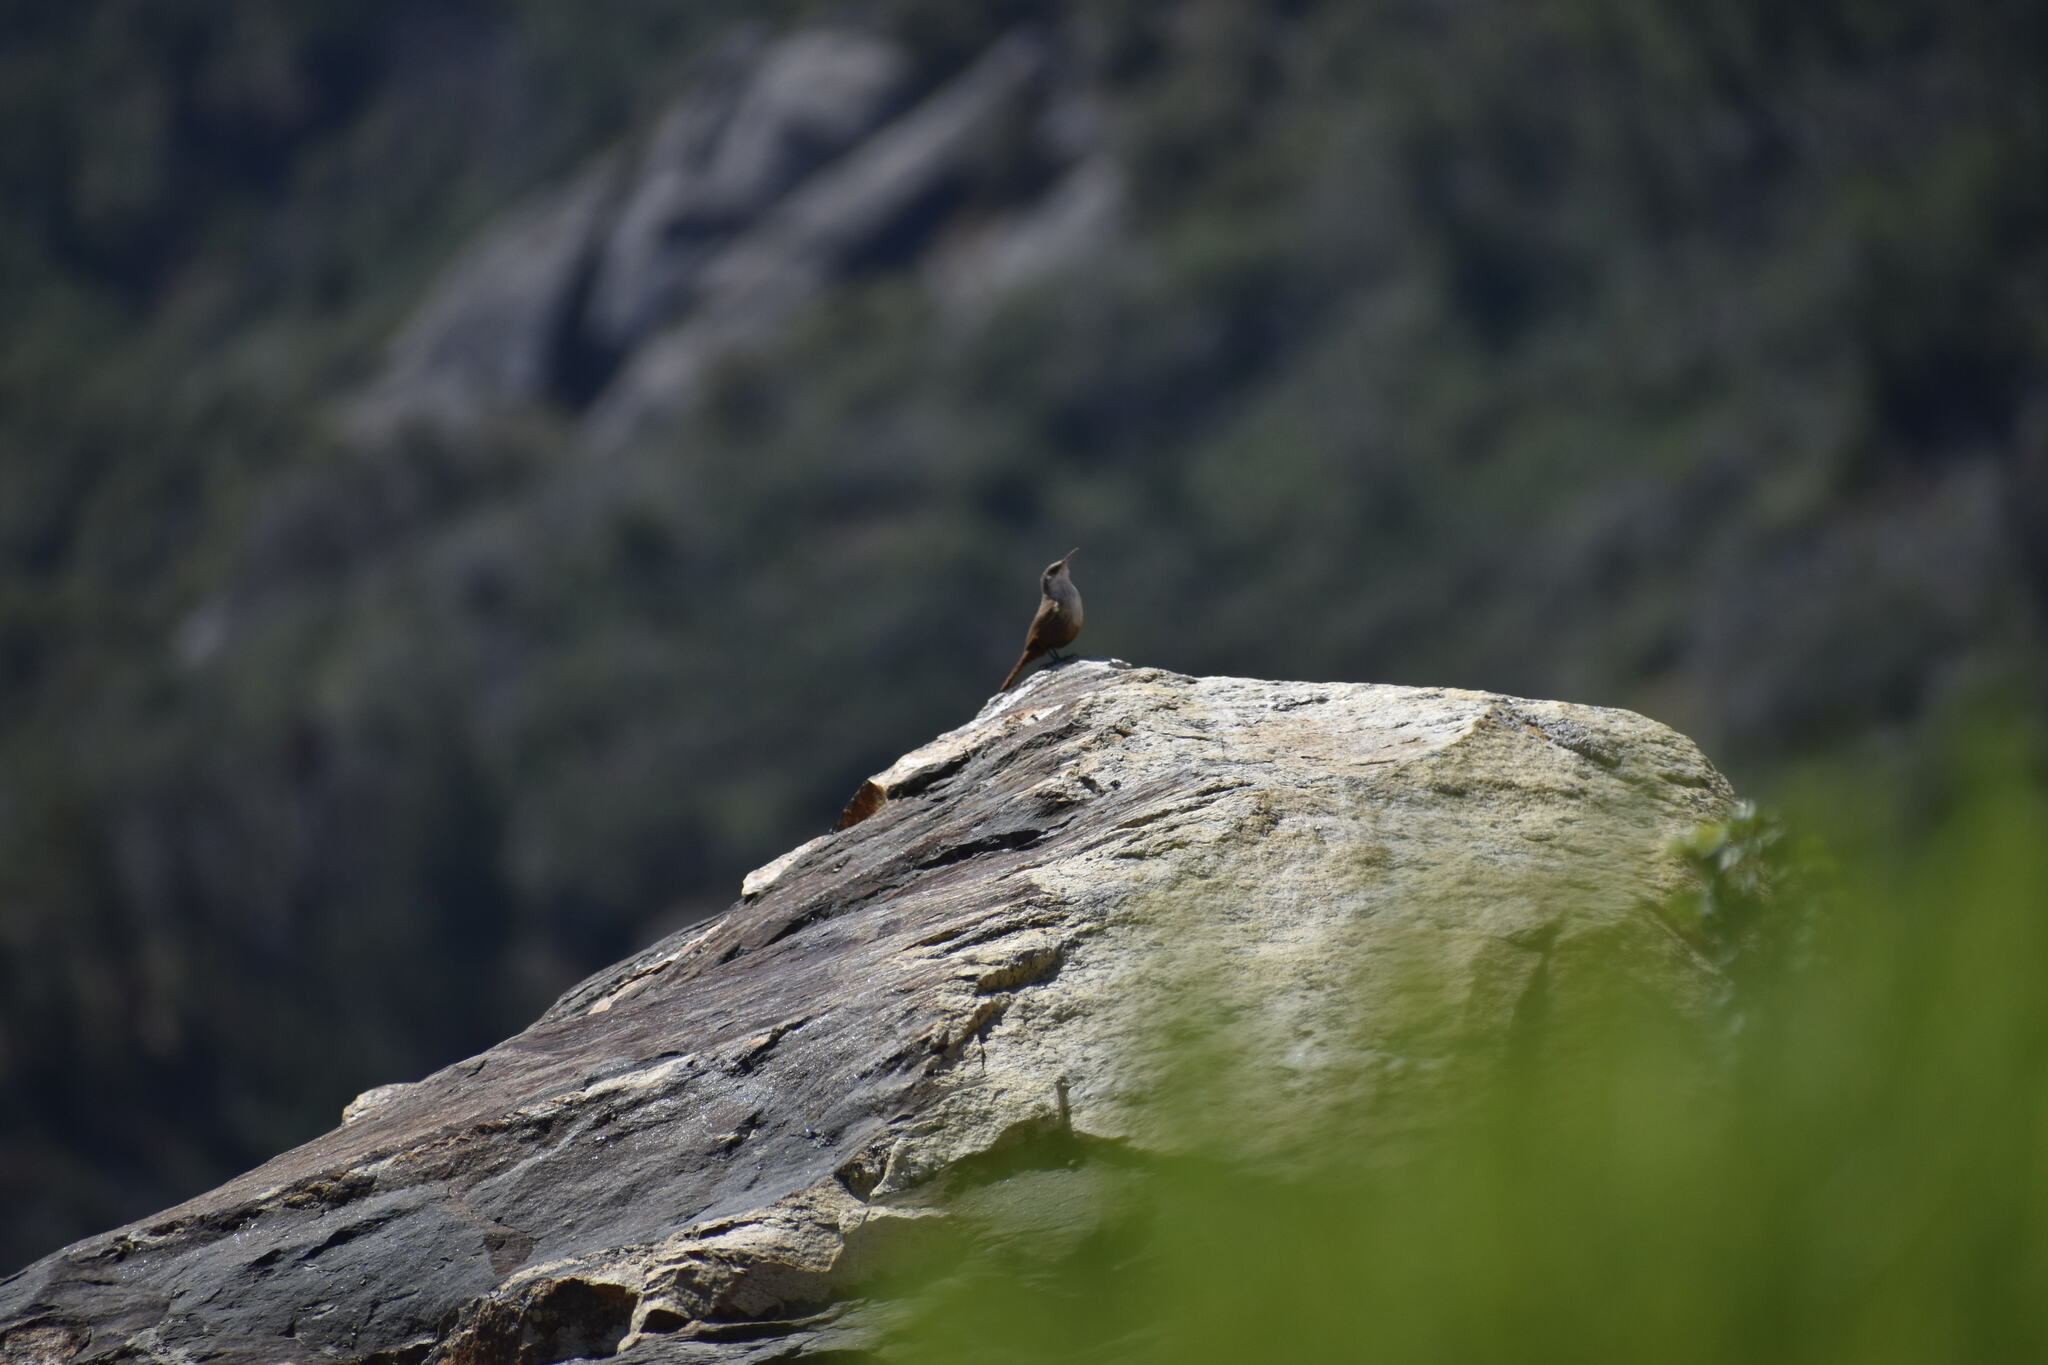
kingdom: Animalia
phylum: Chordata
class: Aves
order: Passeriformes
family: Troglodytidae
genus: Catherpes
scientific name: Catherpes mexicanus
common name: Canyon wren
